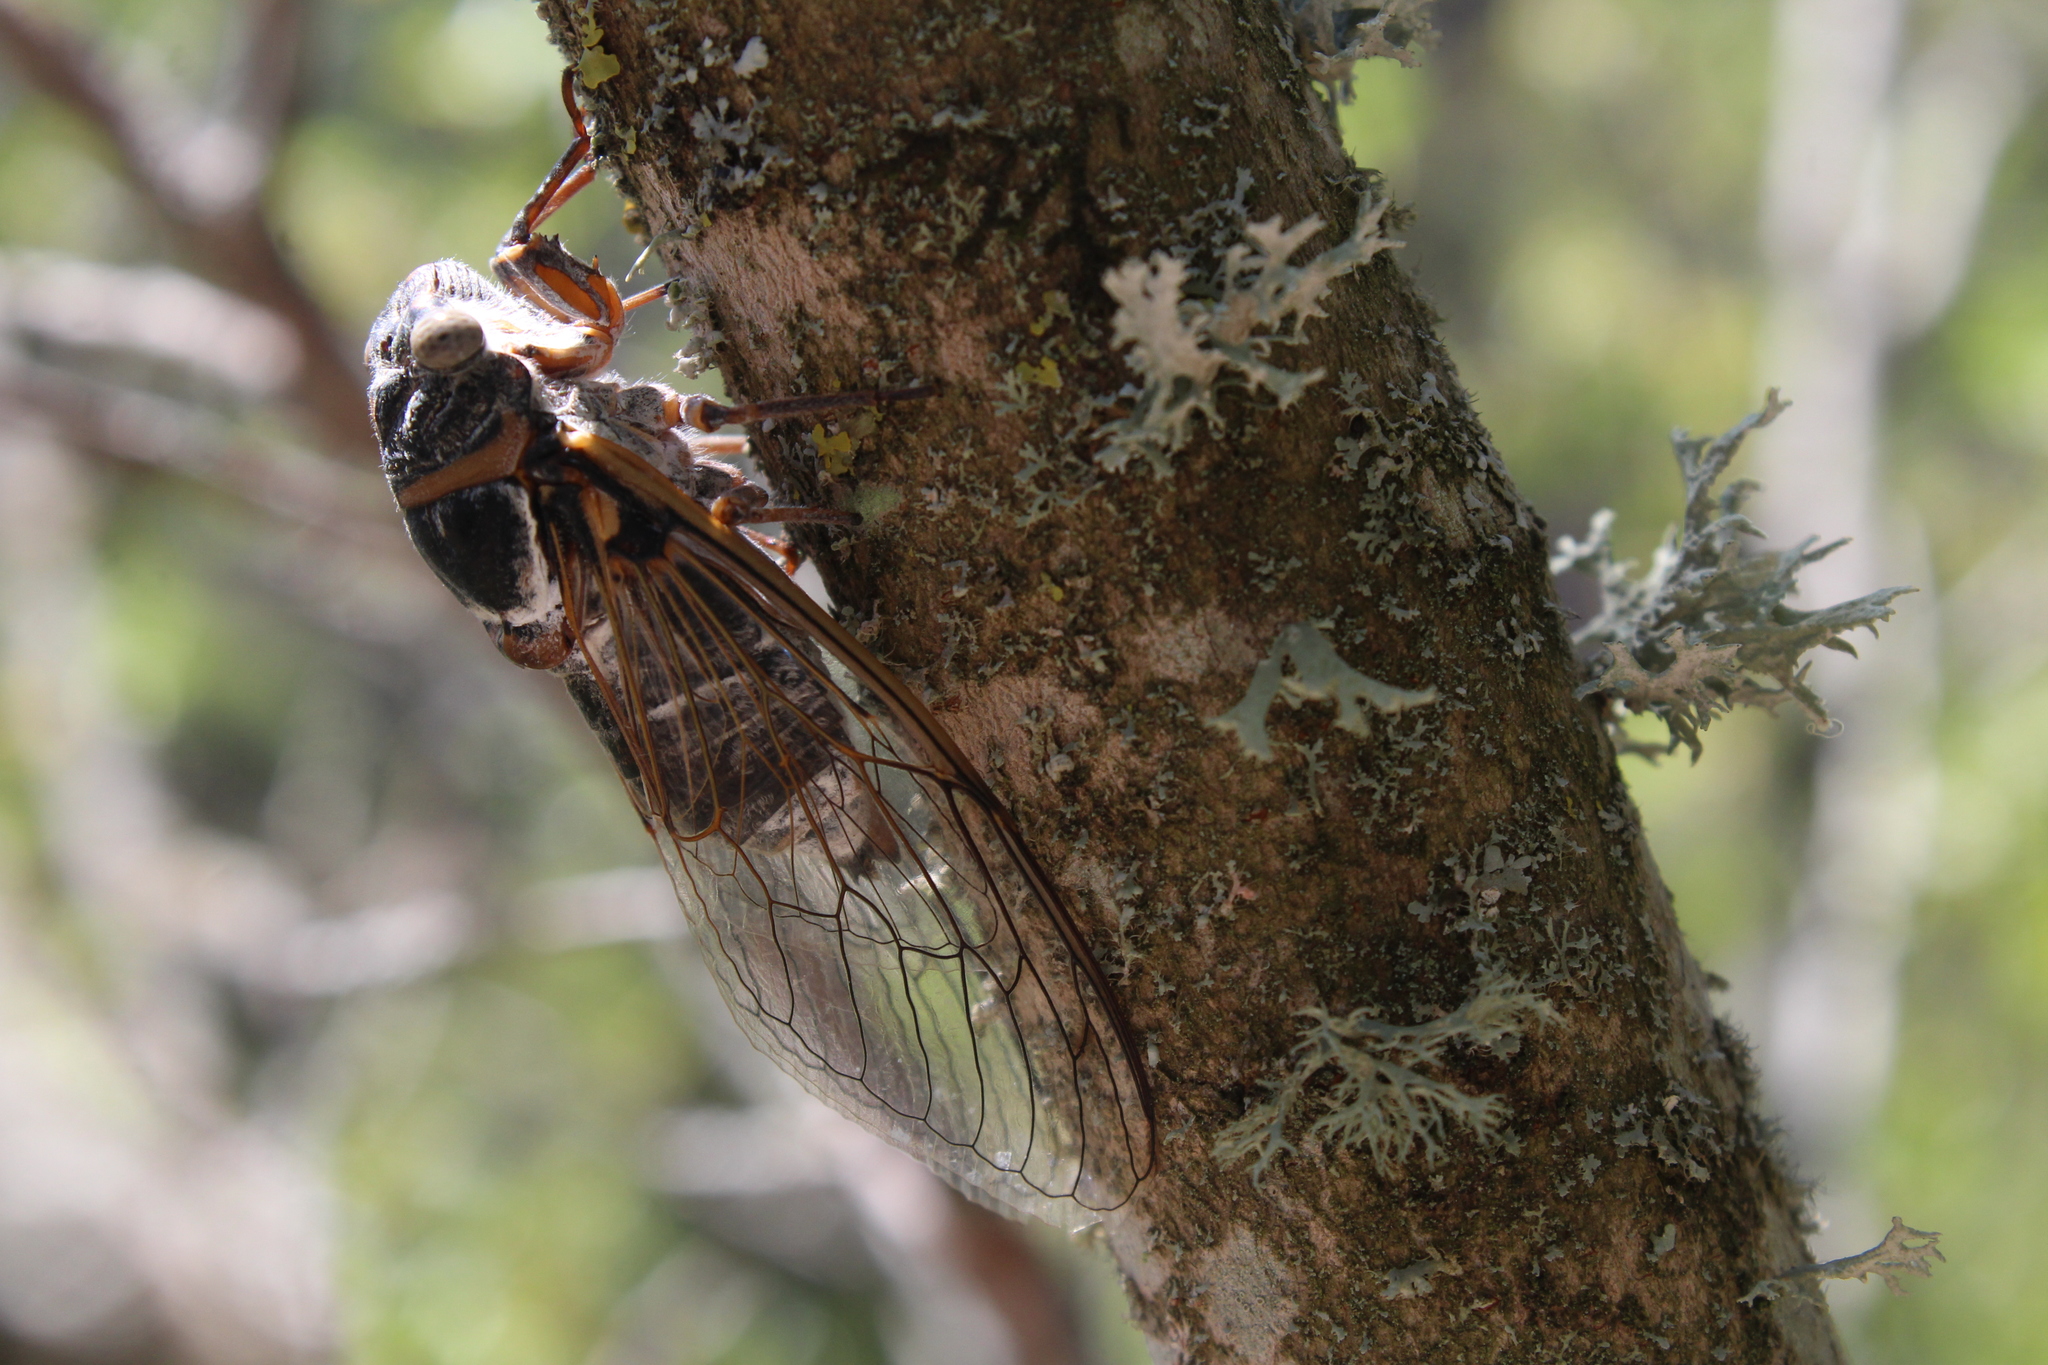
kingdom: Animalia
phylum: Arthropoda
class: Insecta
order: Hemiptera
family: Cicadidae
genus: Lyristes
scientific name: Lyristes plebejus
